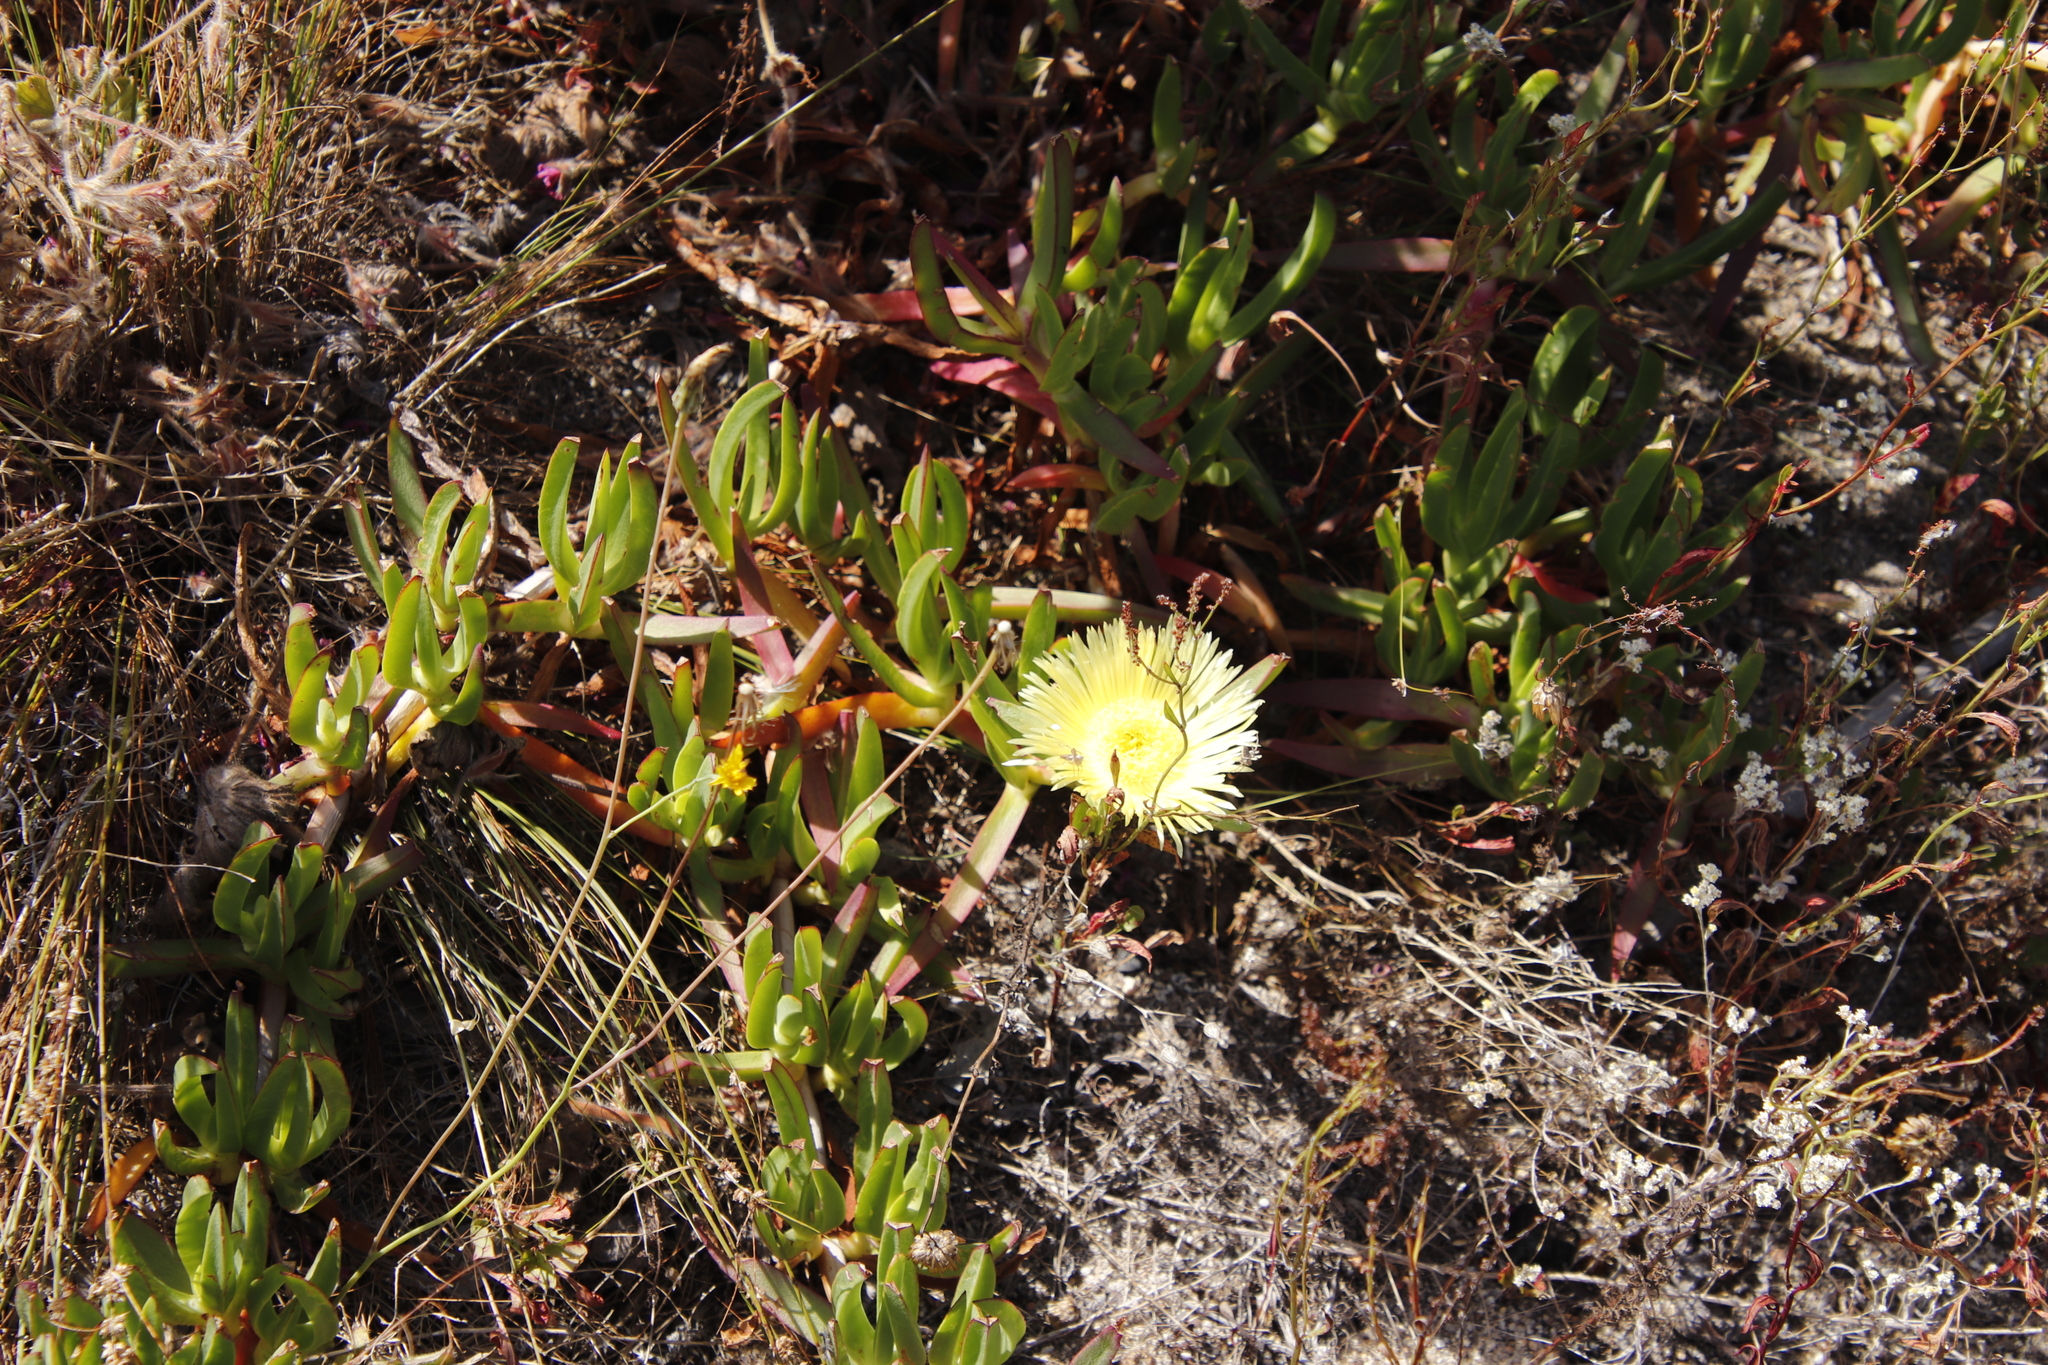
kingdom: Plantae
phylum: Tracheophyta
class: Magnoliopsida
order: Caryophyllales
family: Aizoaceae
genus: Carpobrotus
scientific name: Carpobrotus edulis
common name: Hottentot-fig
